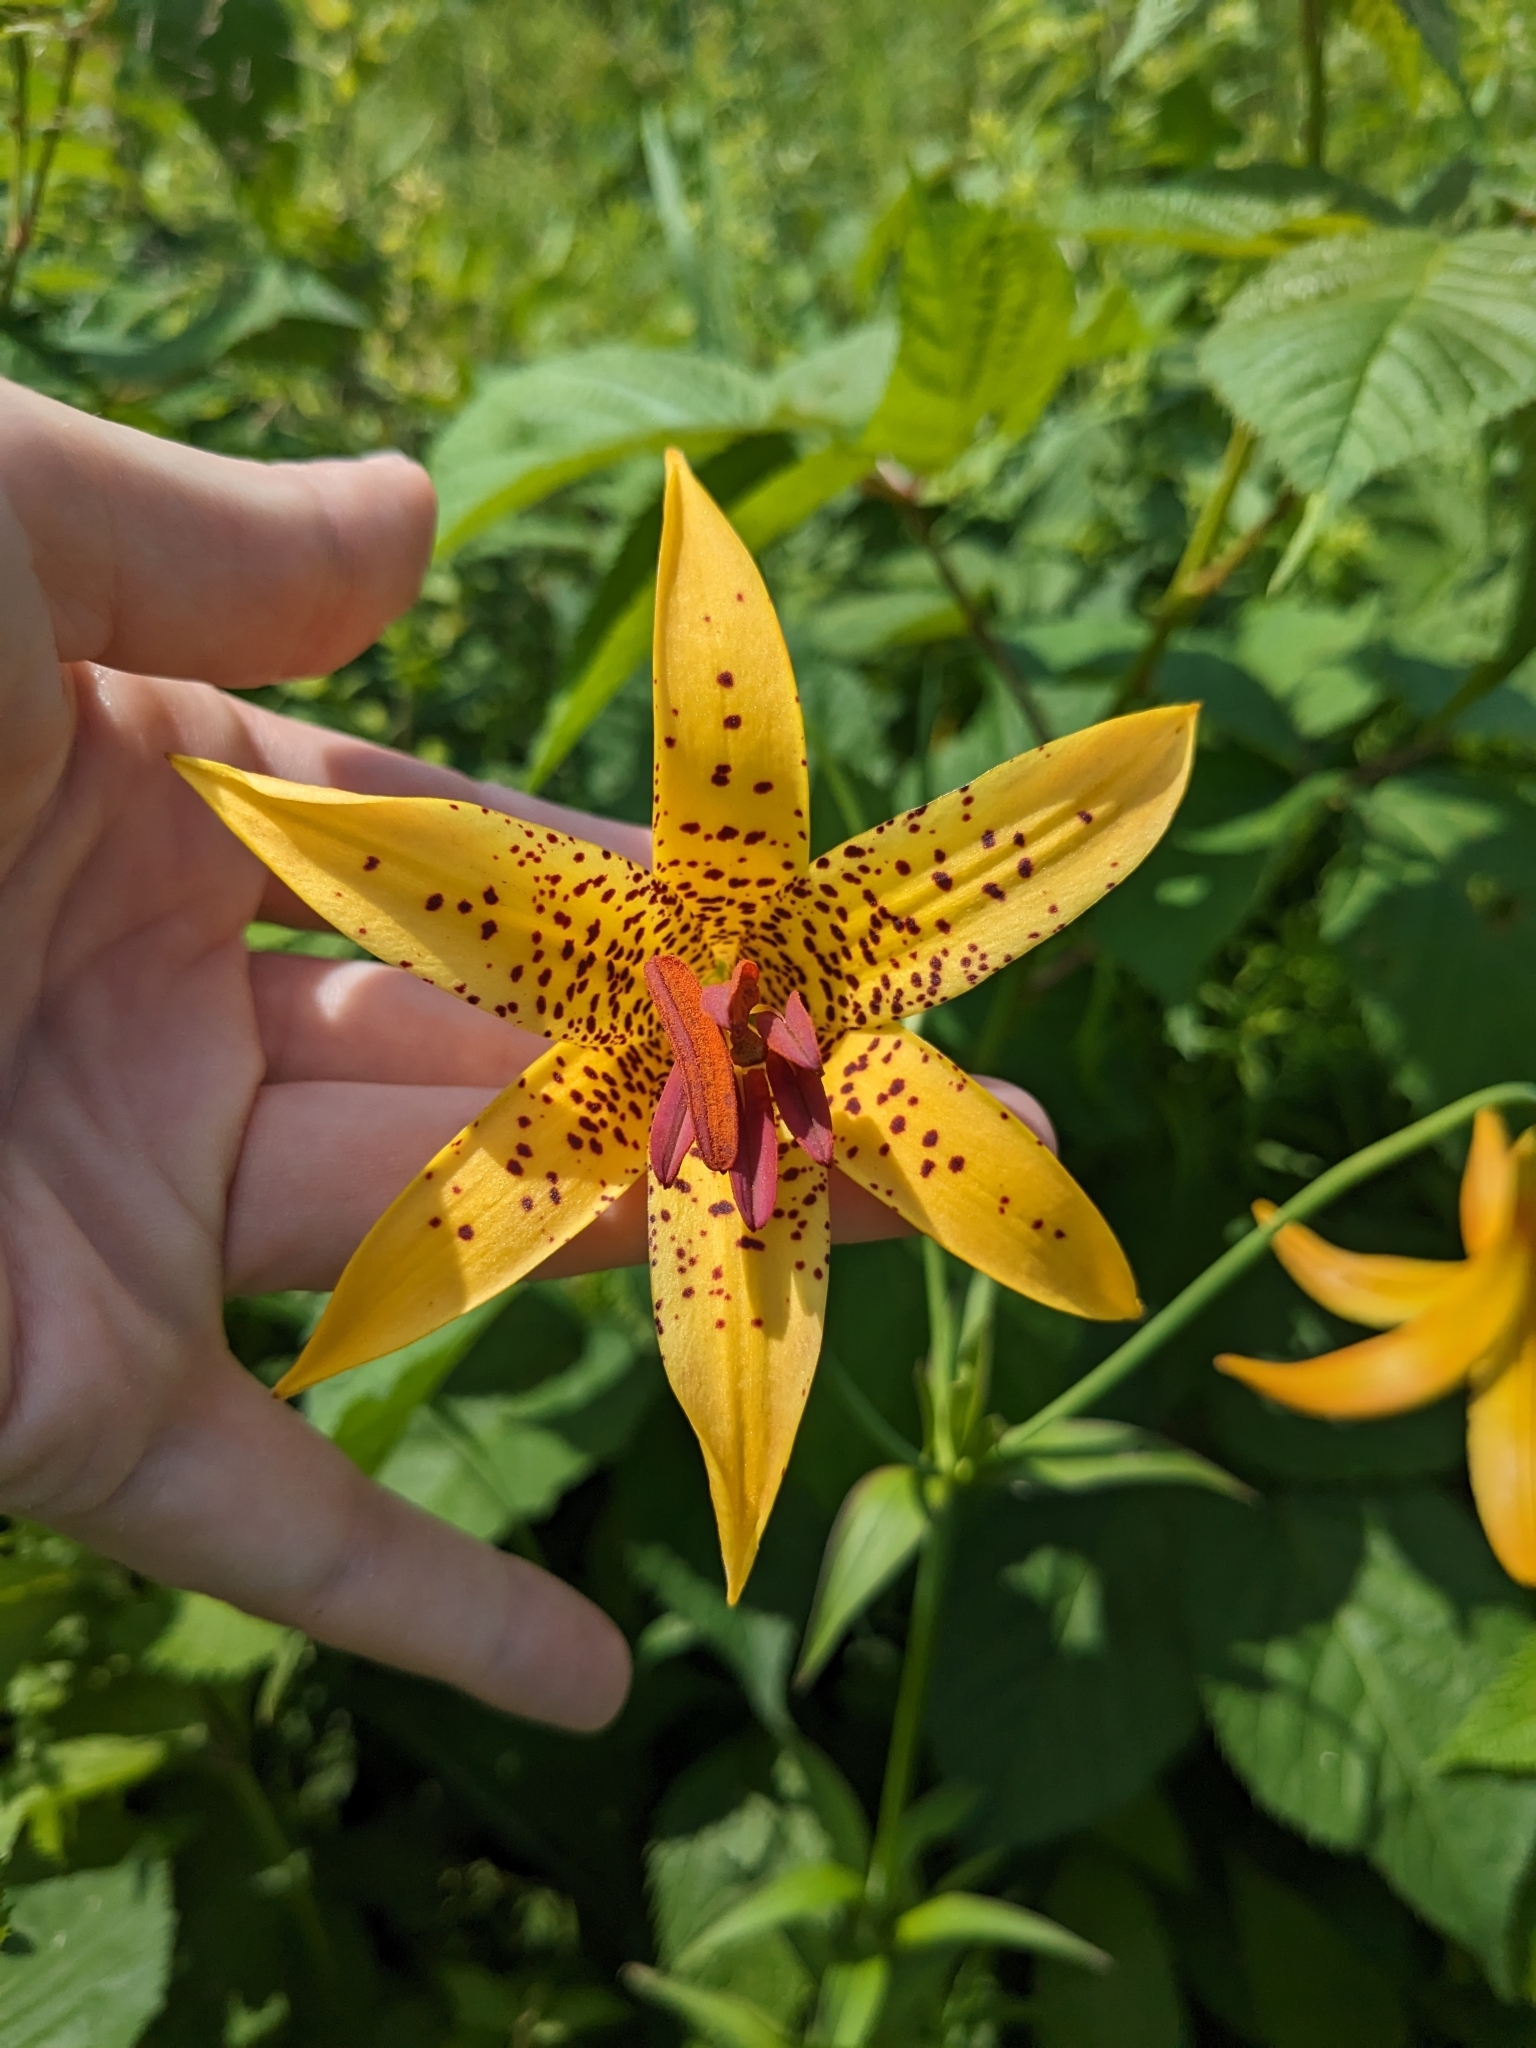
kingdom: Plantae
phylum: Tracheophyta
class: Liliopsida
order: Liliales
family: Liliaceae
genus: Lilium
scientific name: Lilium canadense
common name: Canada lily
